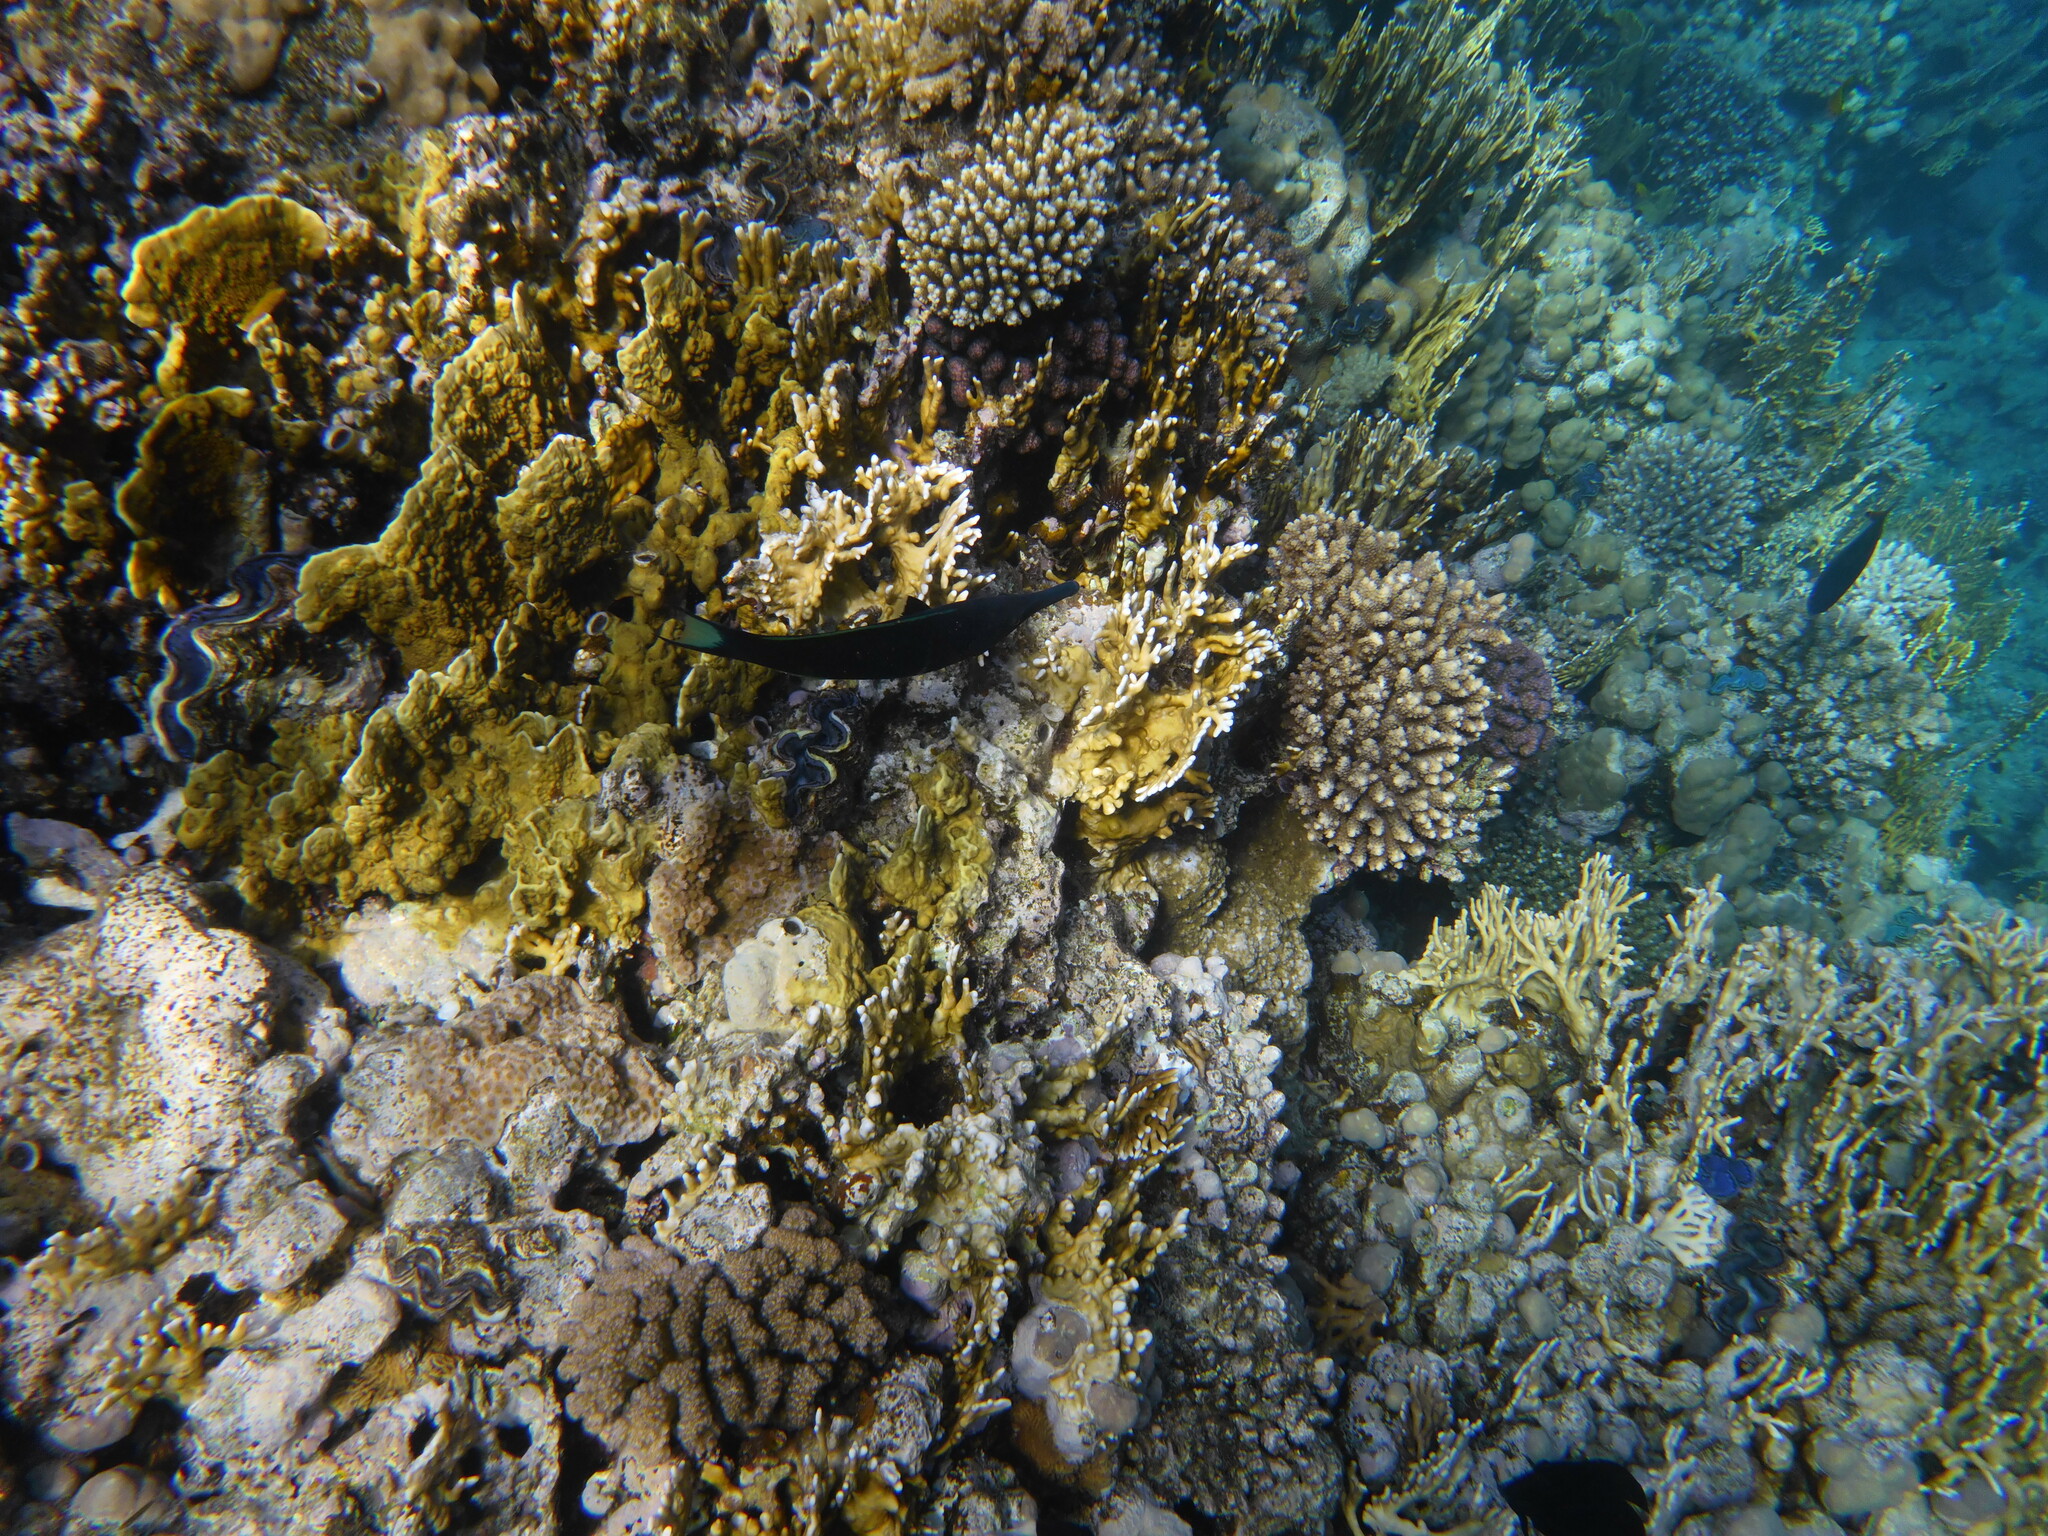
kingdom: Animalia
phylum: Chordata
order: Perciformes
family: Labridae
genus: Gomphosus
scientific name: Gomphosus klunzingeri
